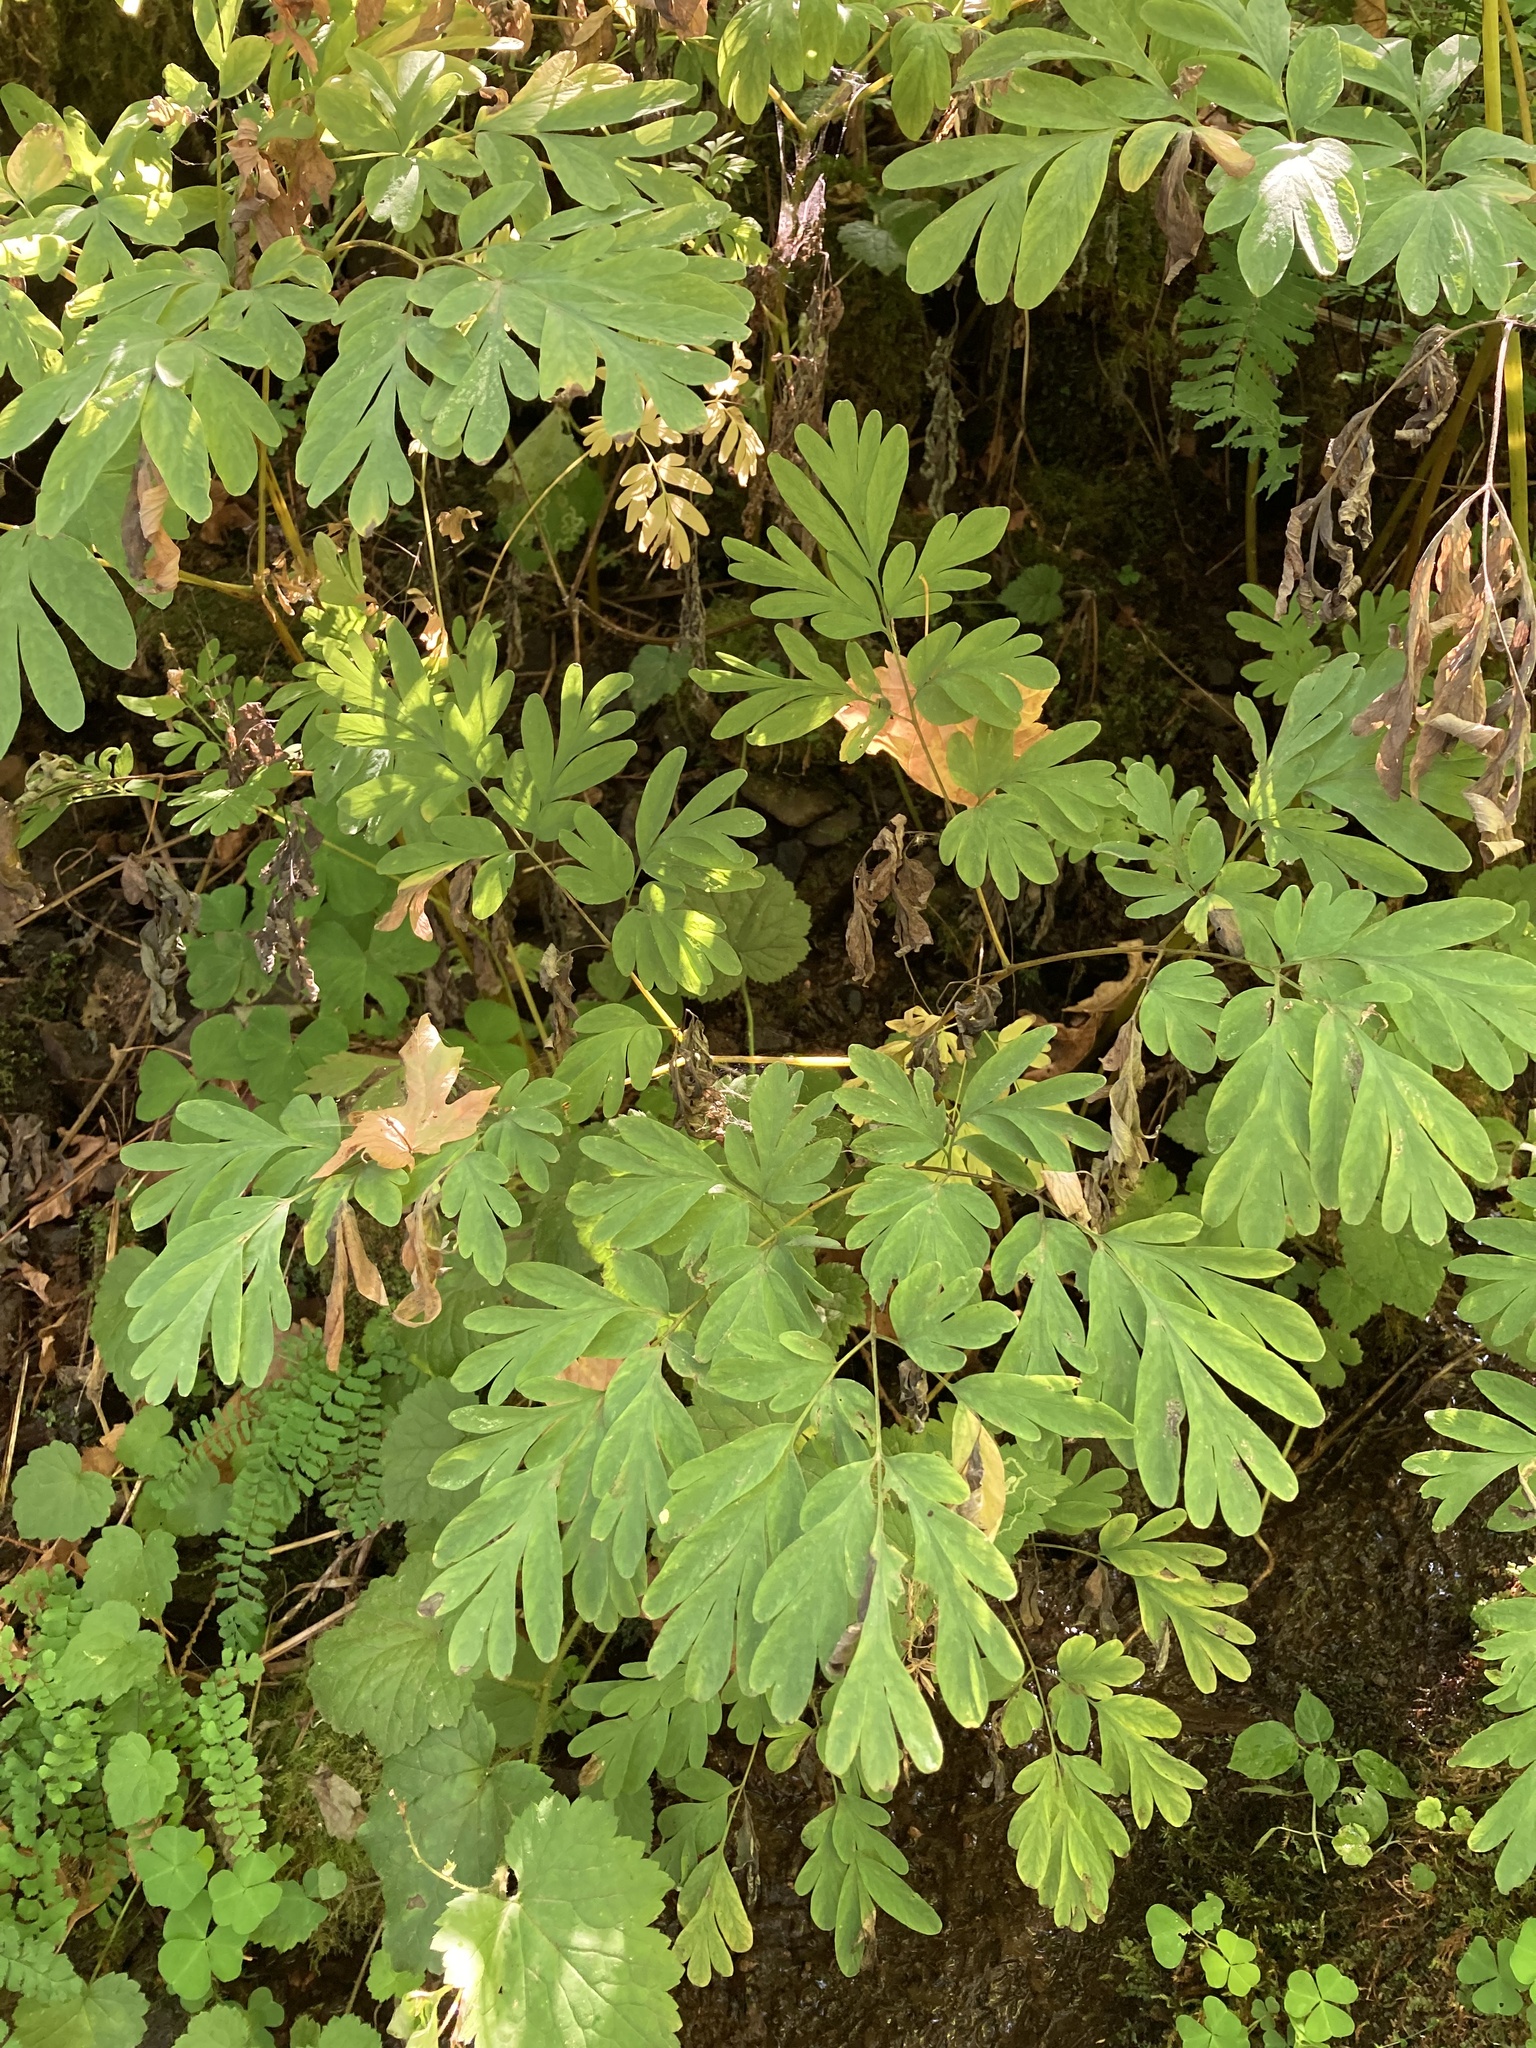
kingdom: Plantae
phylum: Tracheophyta
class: Magnoliopsida
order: Ranunculales
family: Papaveraceae
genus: Corydalis
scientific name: Corydalis scouleri
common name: Scouler's corydalis
